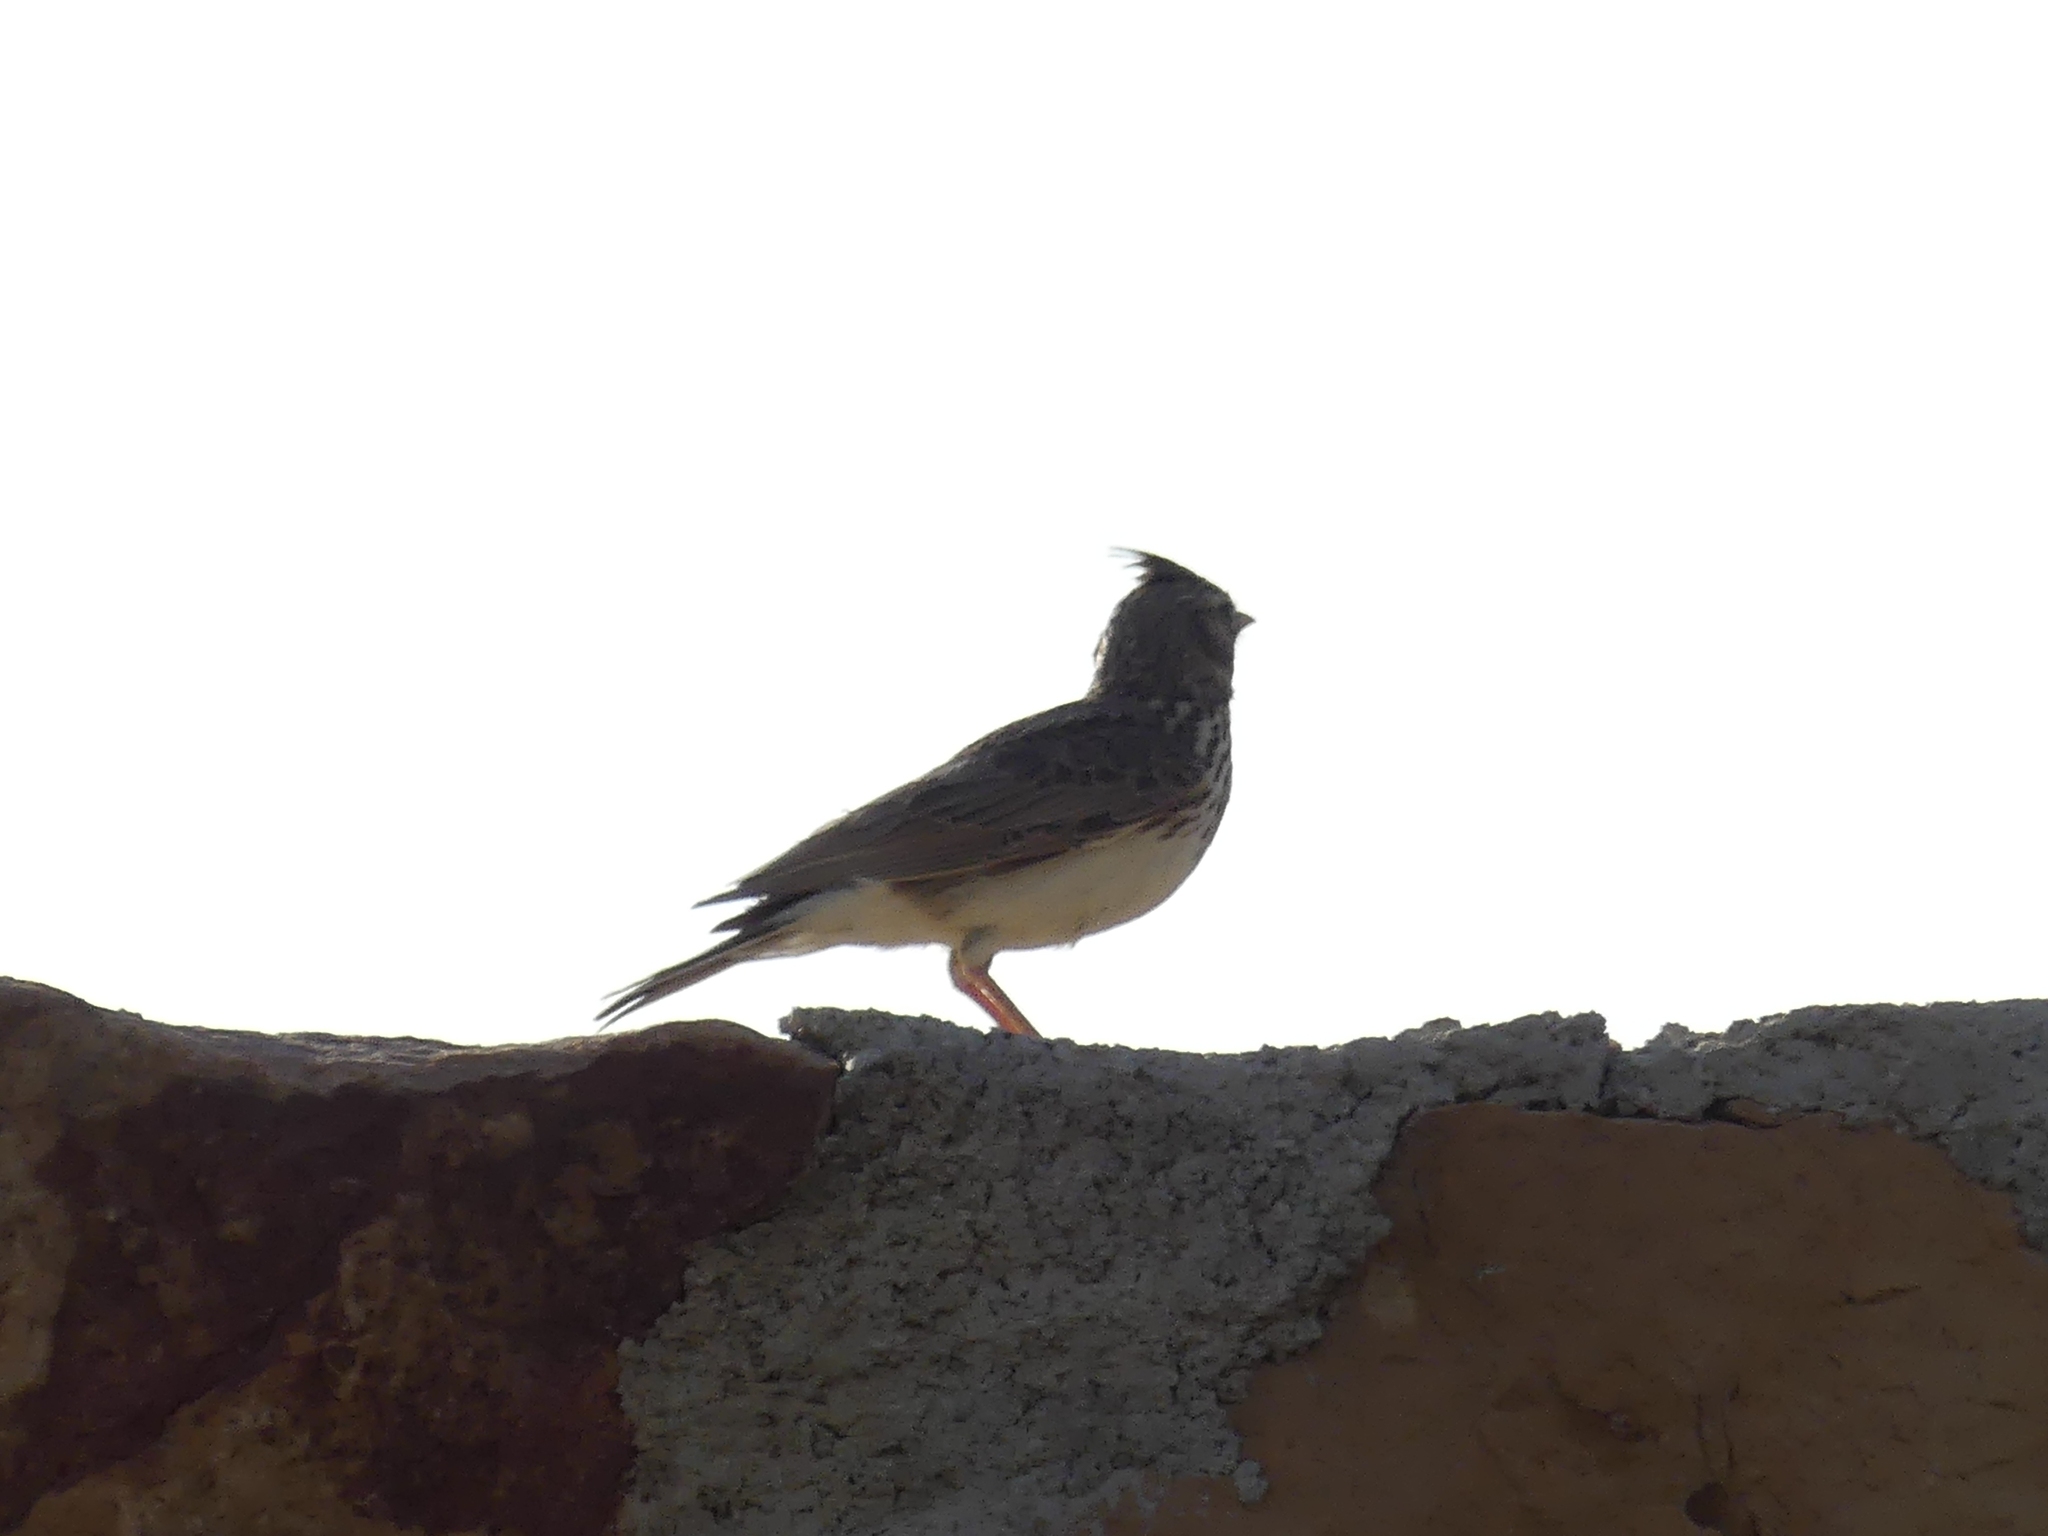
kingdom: Animalia
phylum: Chordata
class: Aves
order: Passeriformes
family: Alaudidae
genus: Galerida
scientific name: Galerida cristata
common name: Crested lark
